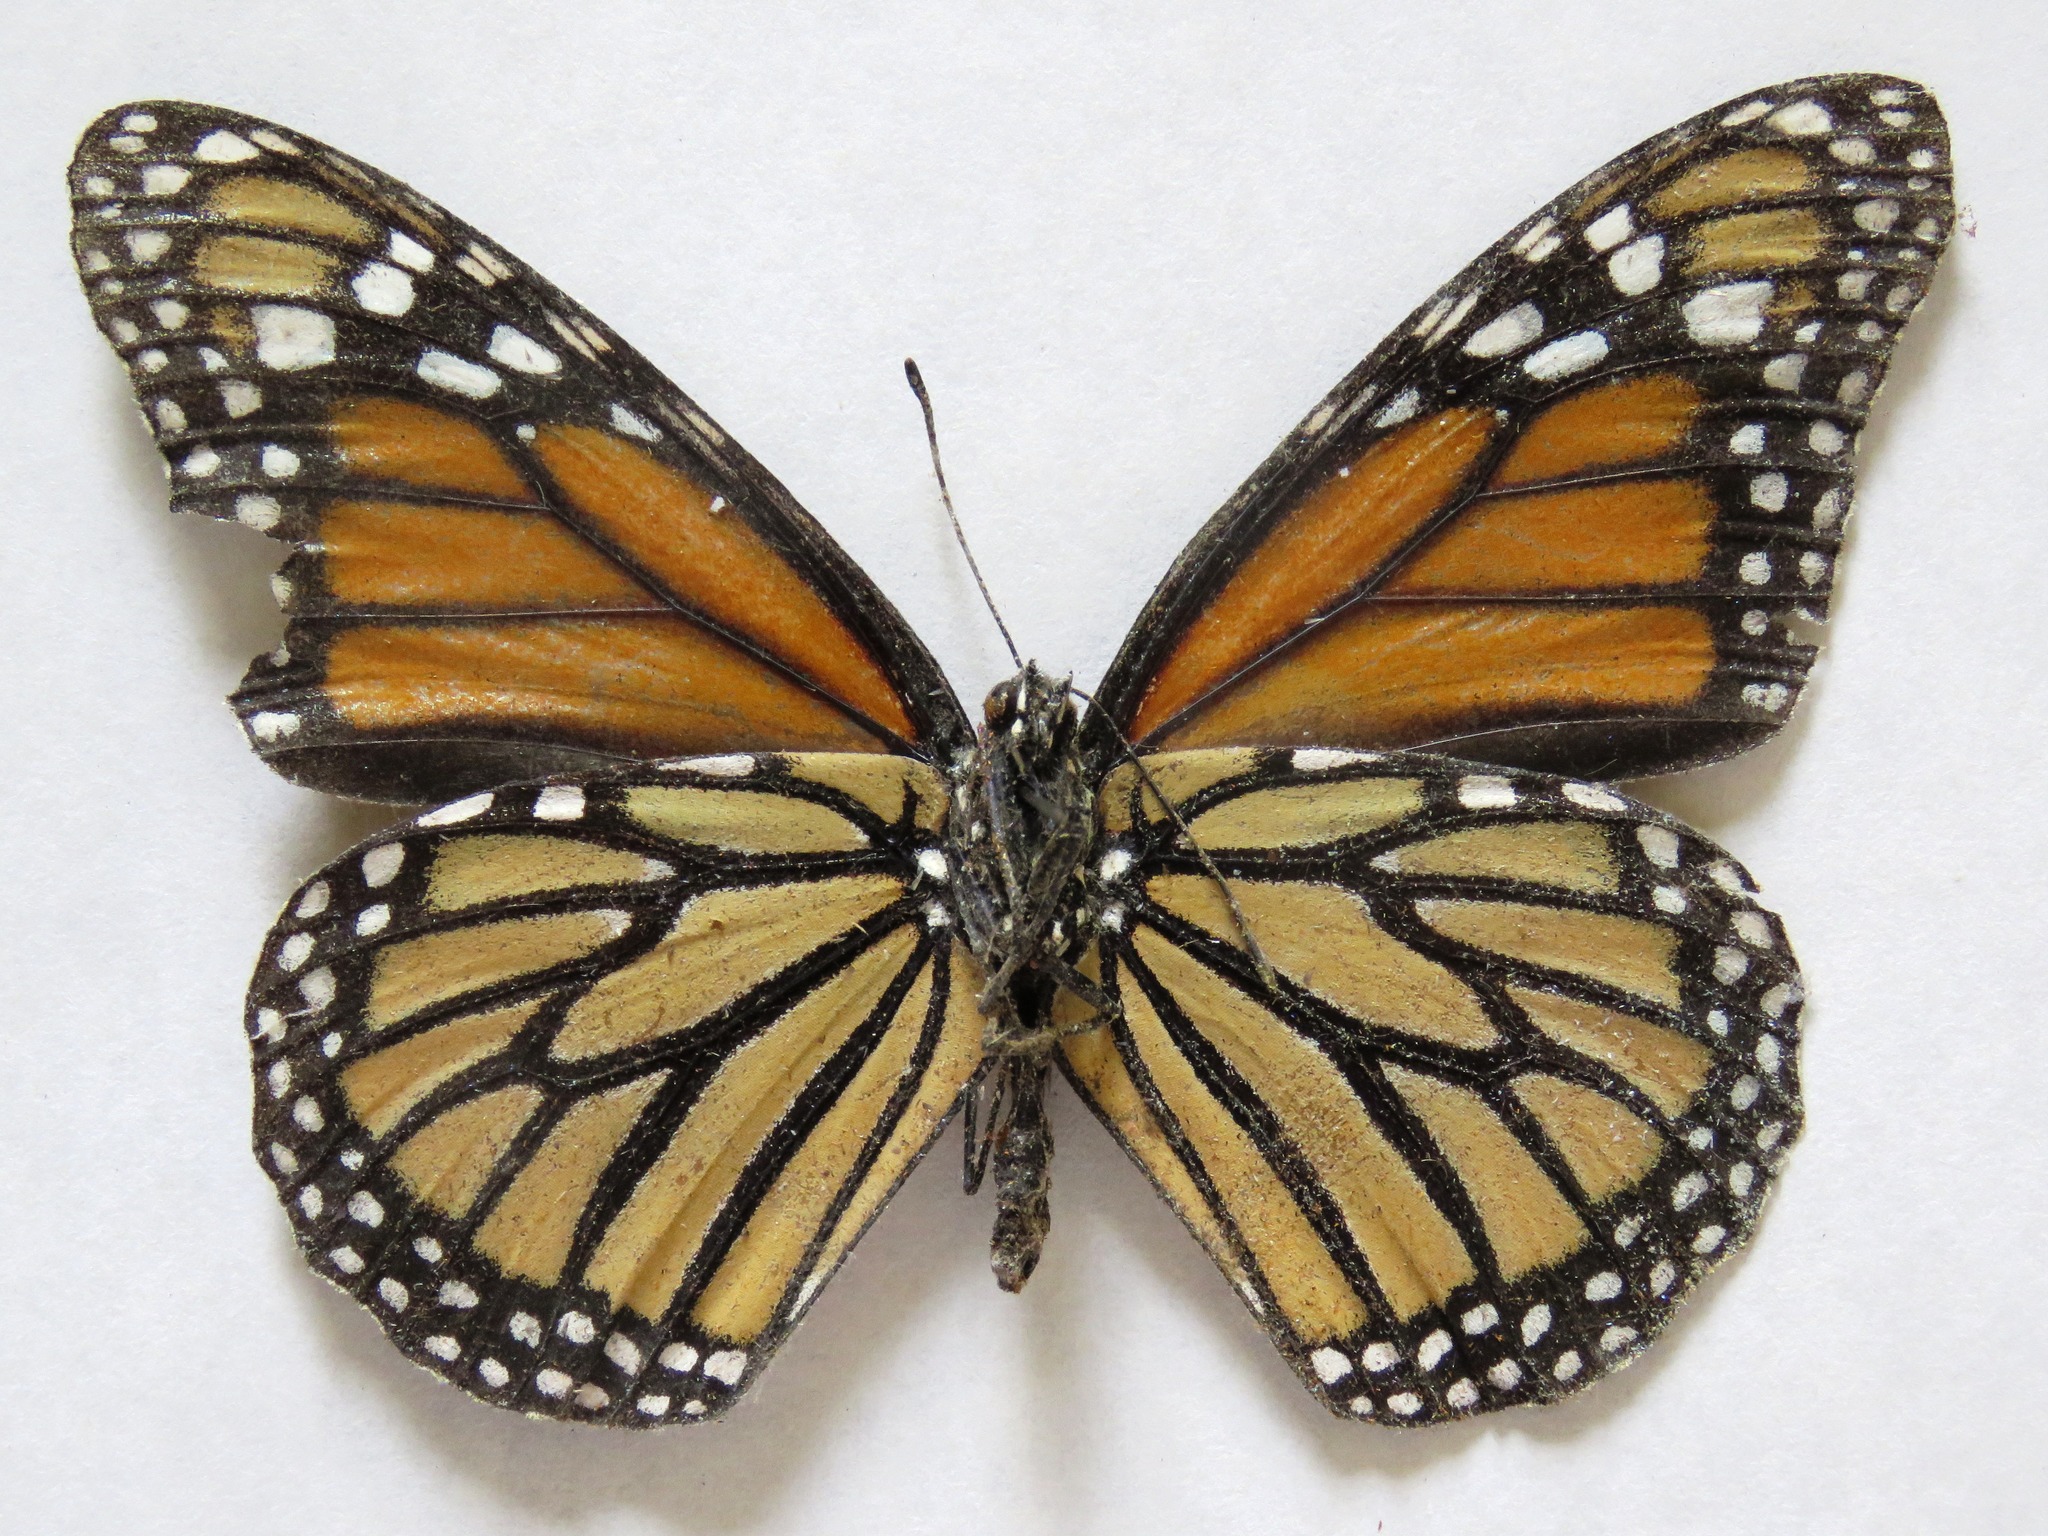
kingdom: Animalia
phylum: Arthropoda
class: Insecta
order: Lepidoptera
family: Nymphalidae
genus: Danaus
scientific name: Danaus plexippus
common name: Monarch
